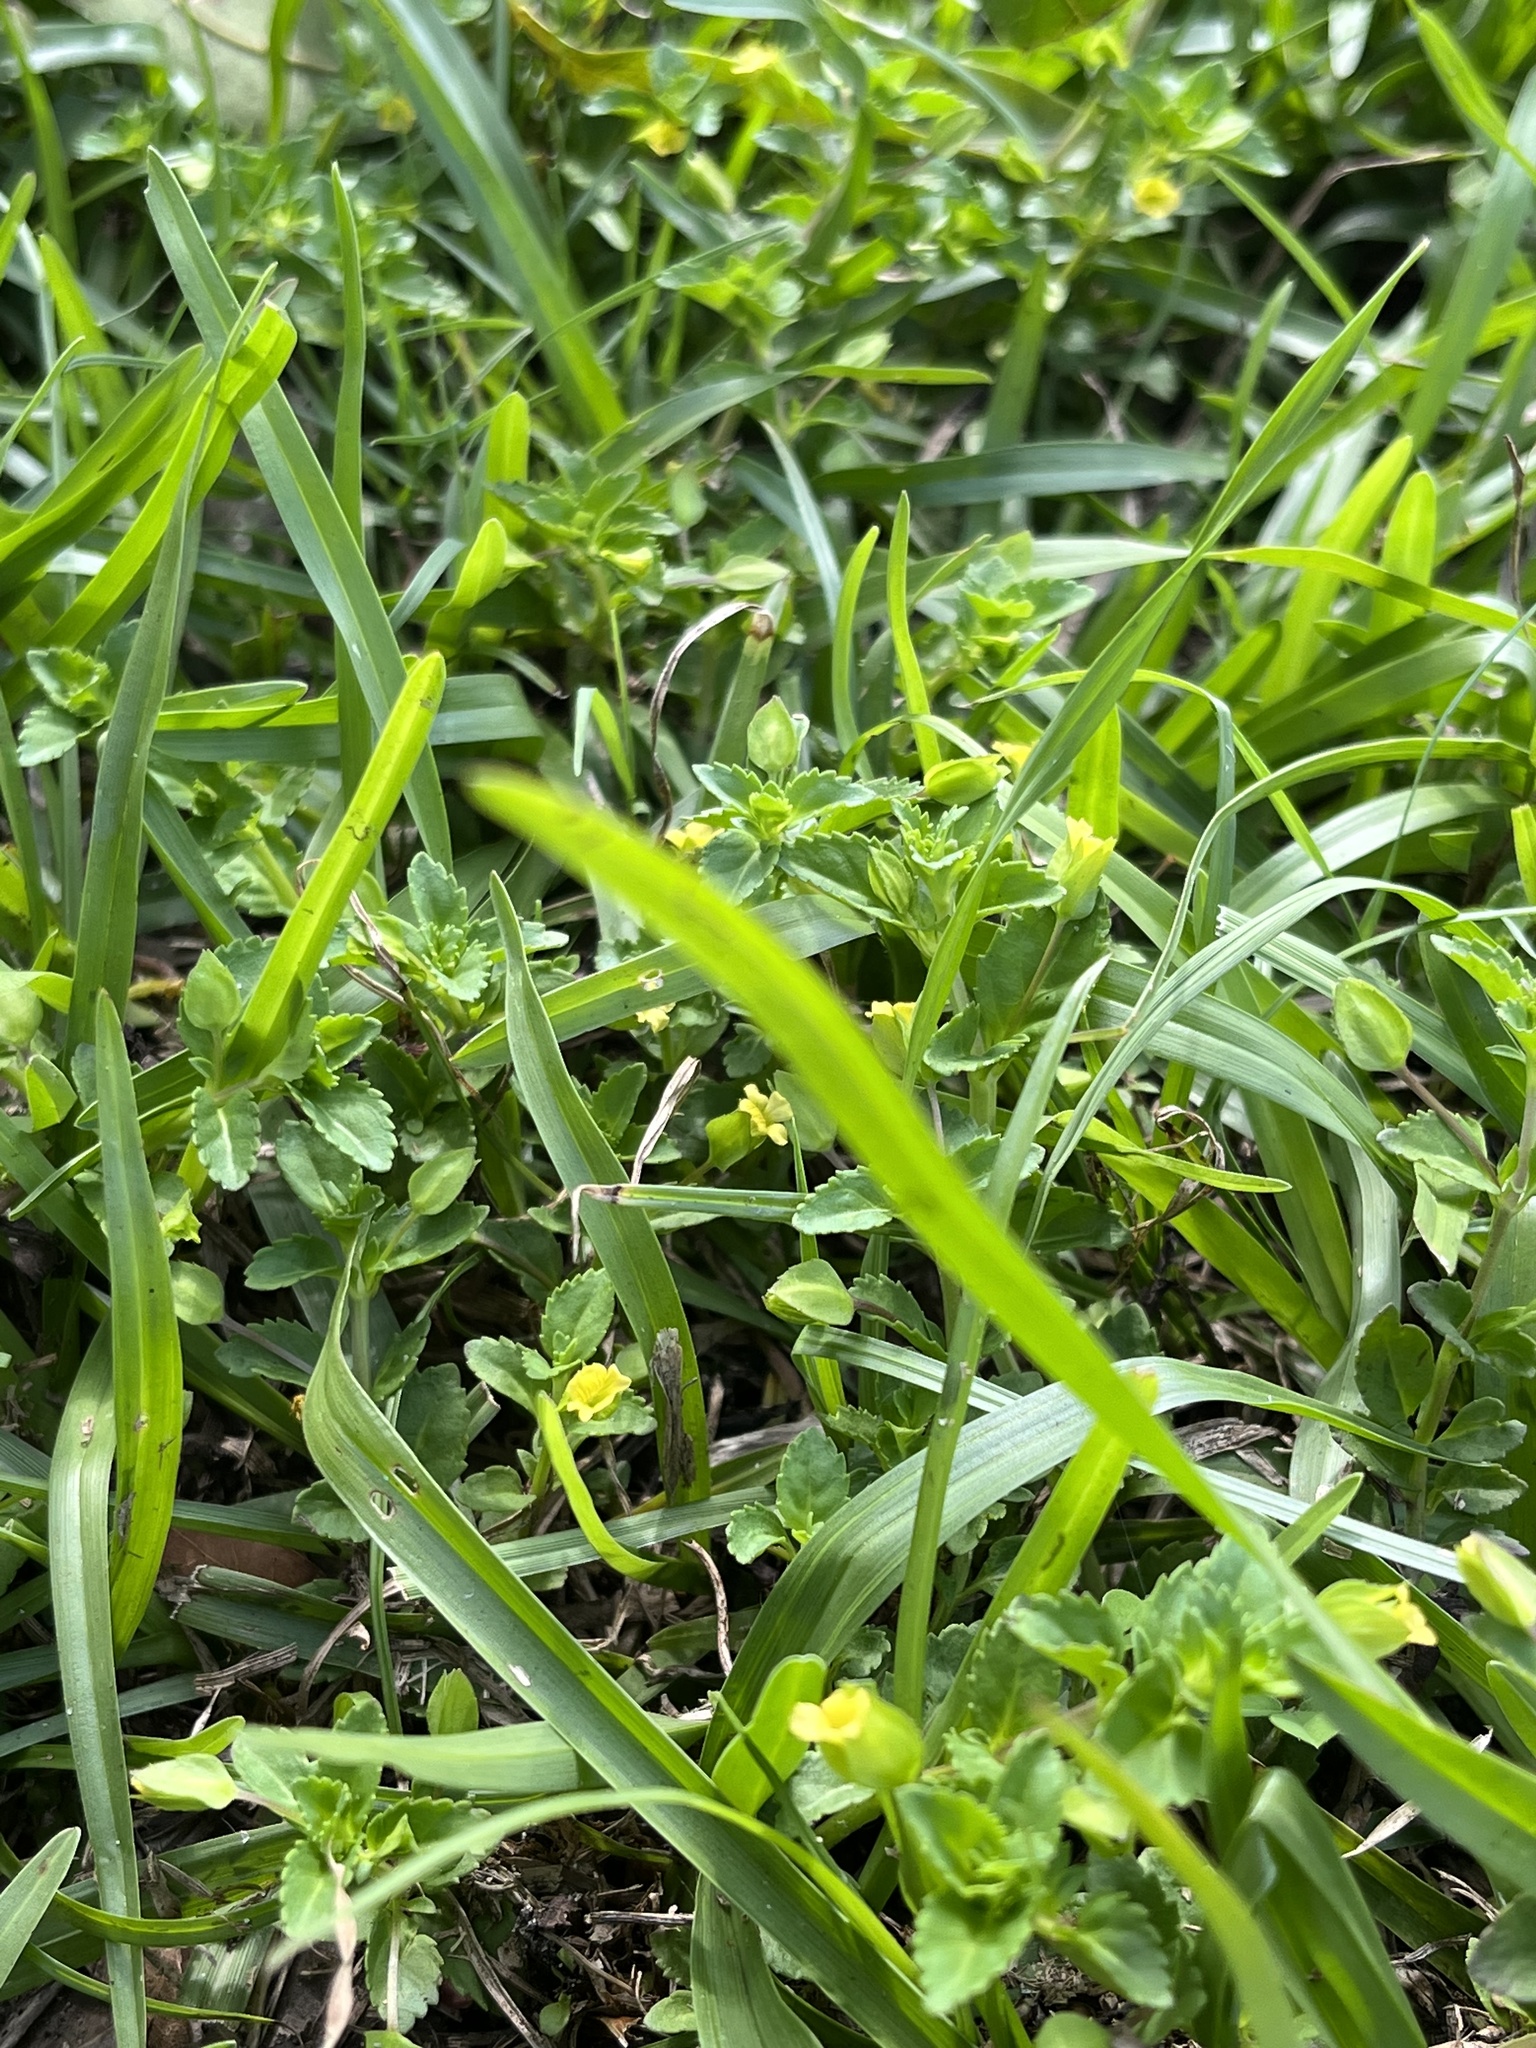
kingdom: Plantae
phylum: Tracheophyta
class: Magnoliopsida
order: Lamiales
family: Plantaginaceae
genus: Mecardonia
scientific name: Mecardonia procumbens
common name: Baby jump-up
